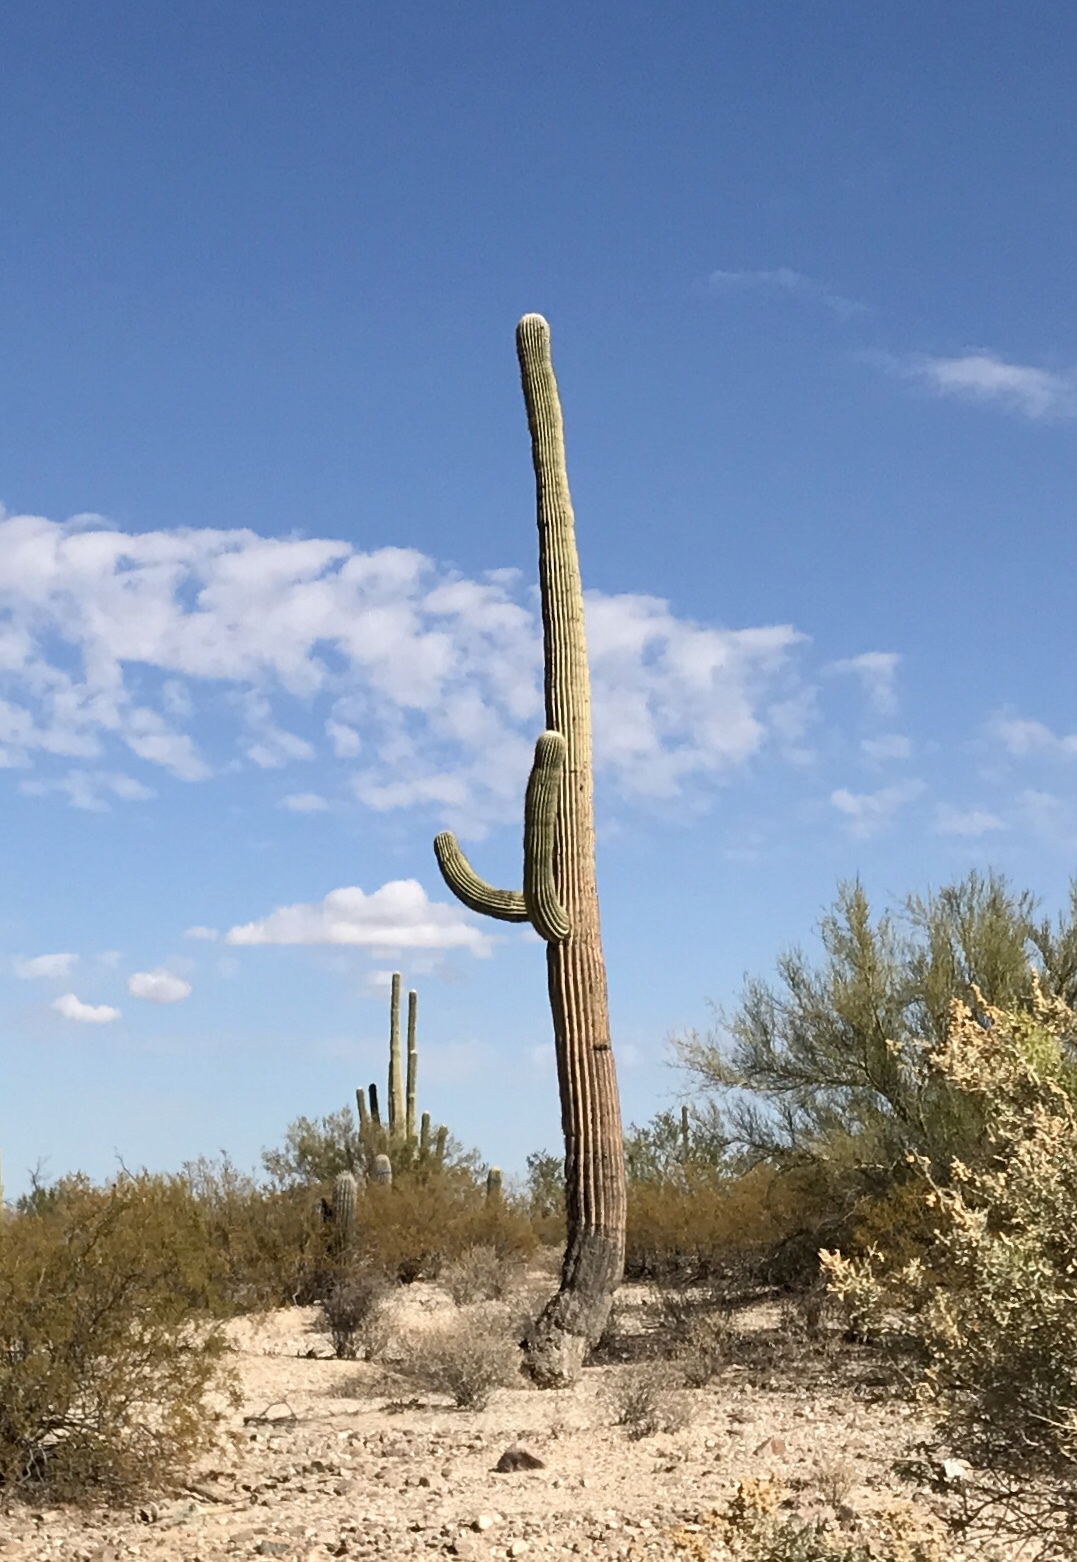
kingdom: Plantae
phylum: Tracheophyta
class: Magnoliopsida
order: Caryophyllales
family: Cactaceae
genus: Carnegiea
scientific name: Carnegiea gigantea
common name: Saguaro
